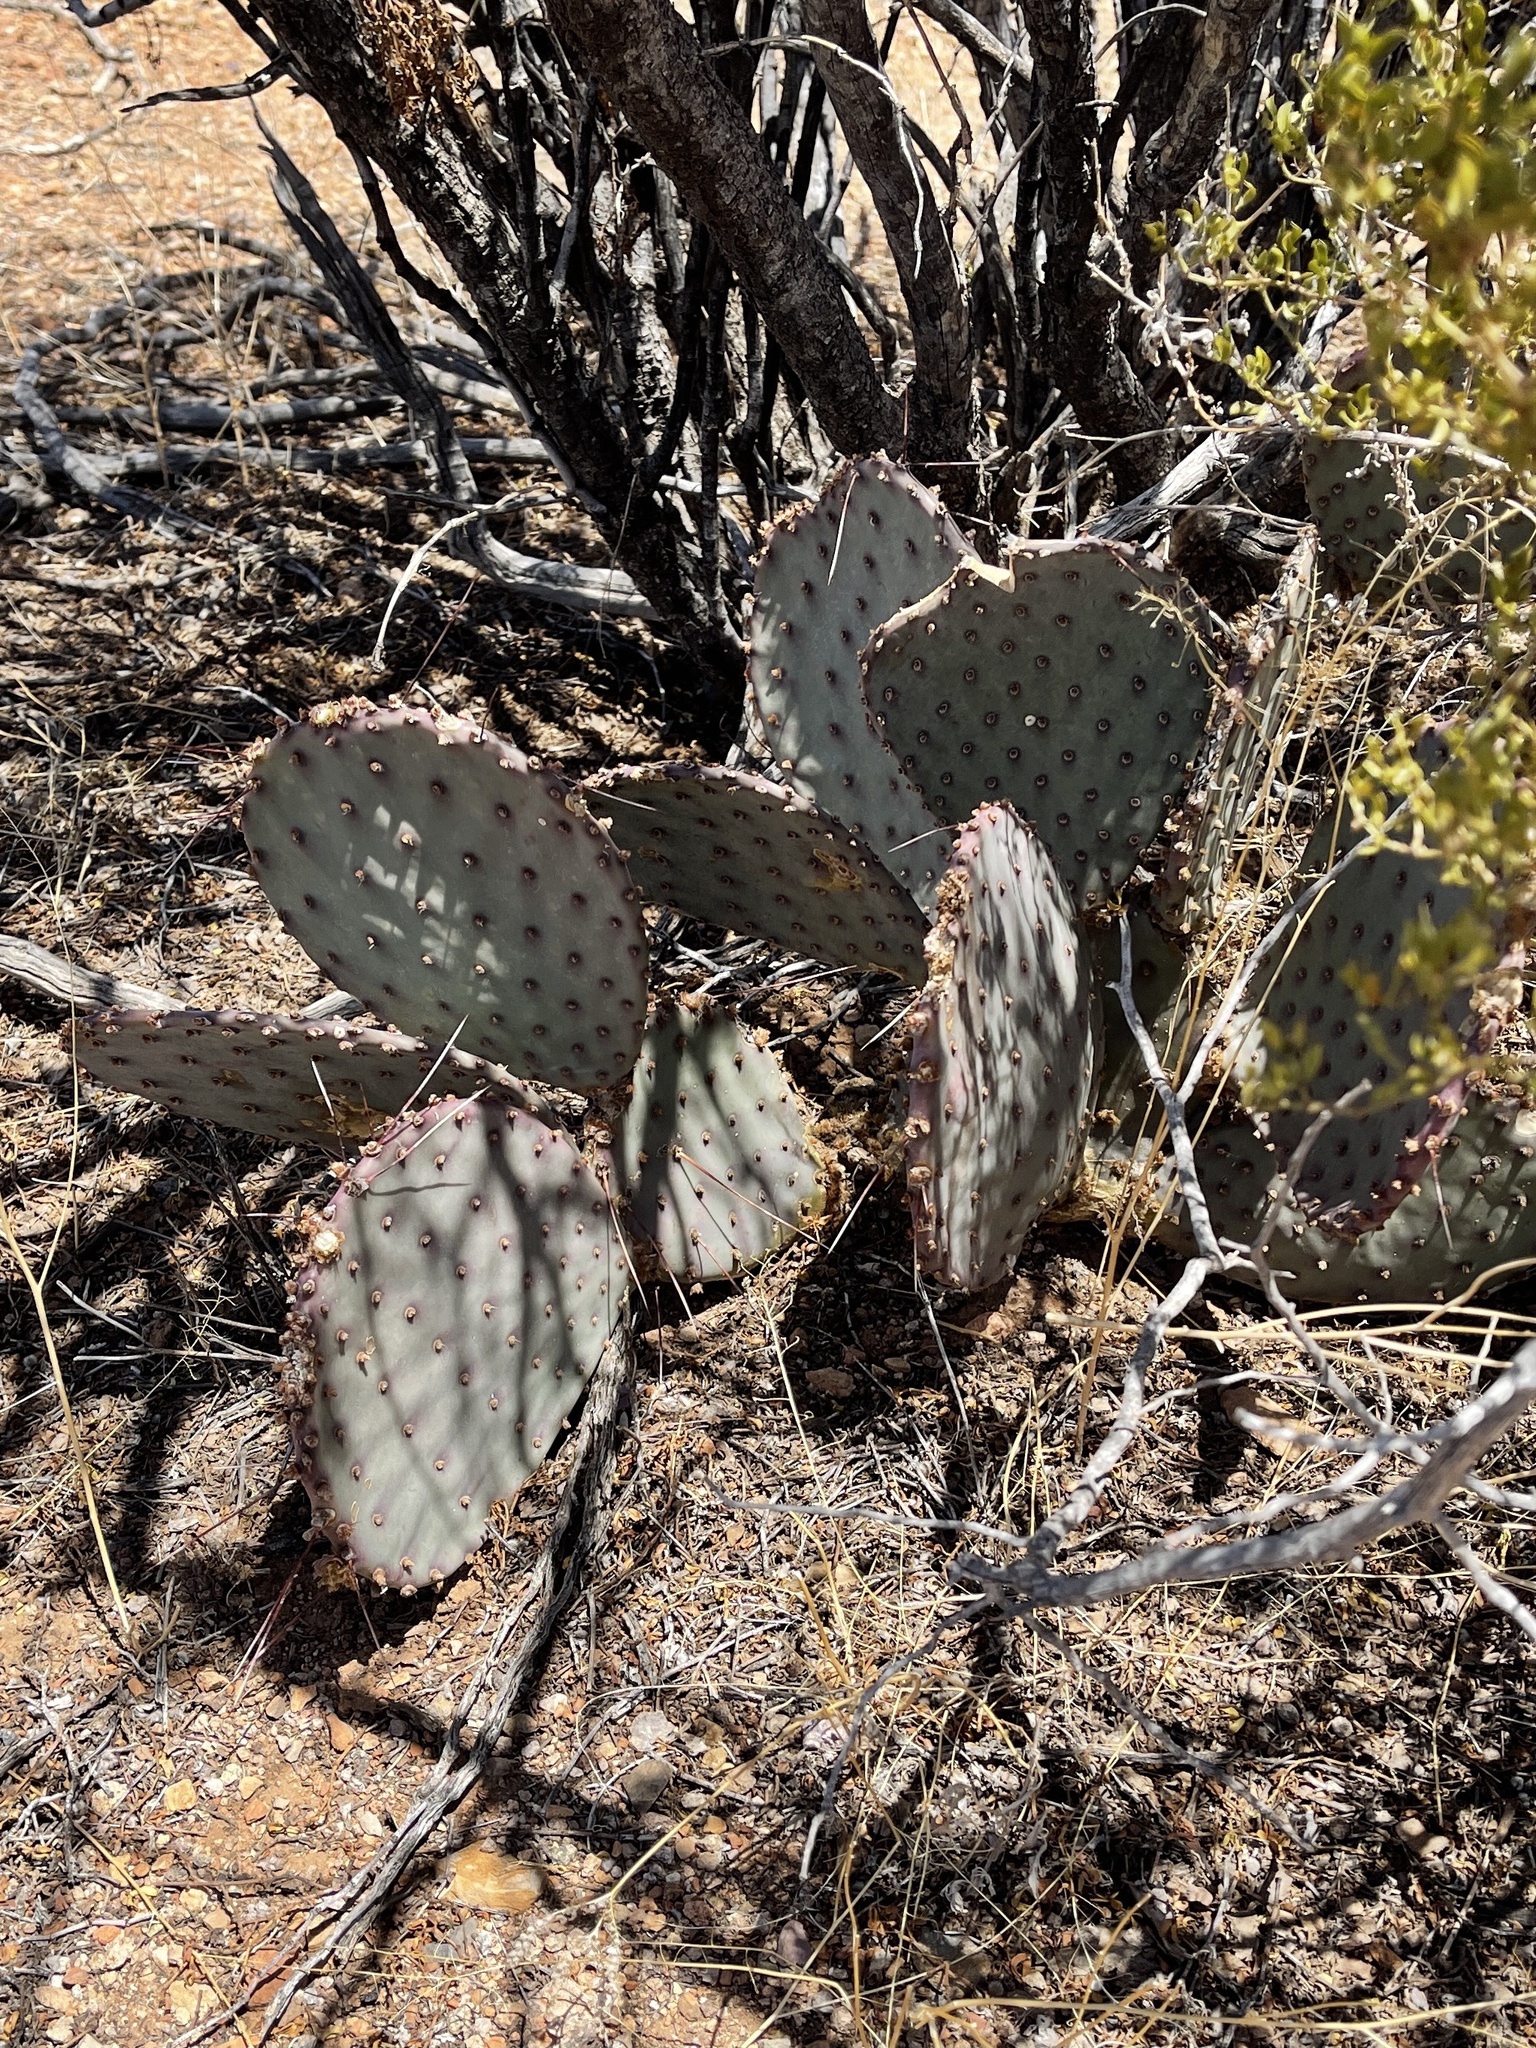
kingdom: Plantae
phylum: Tracheophyta
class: Magnoliopsida
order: Caryophyllales
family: Cactaceae
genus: Opuntia
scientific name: Opuntia macrocentra
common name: Purple prickly-pear
